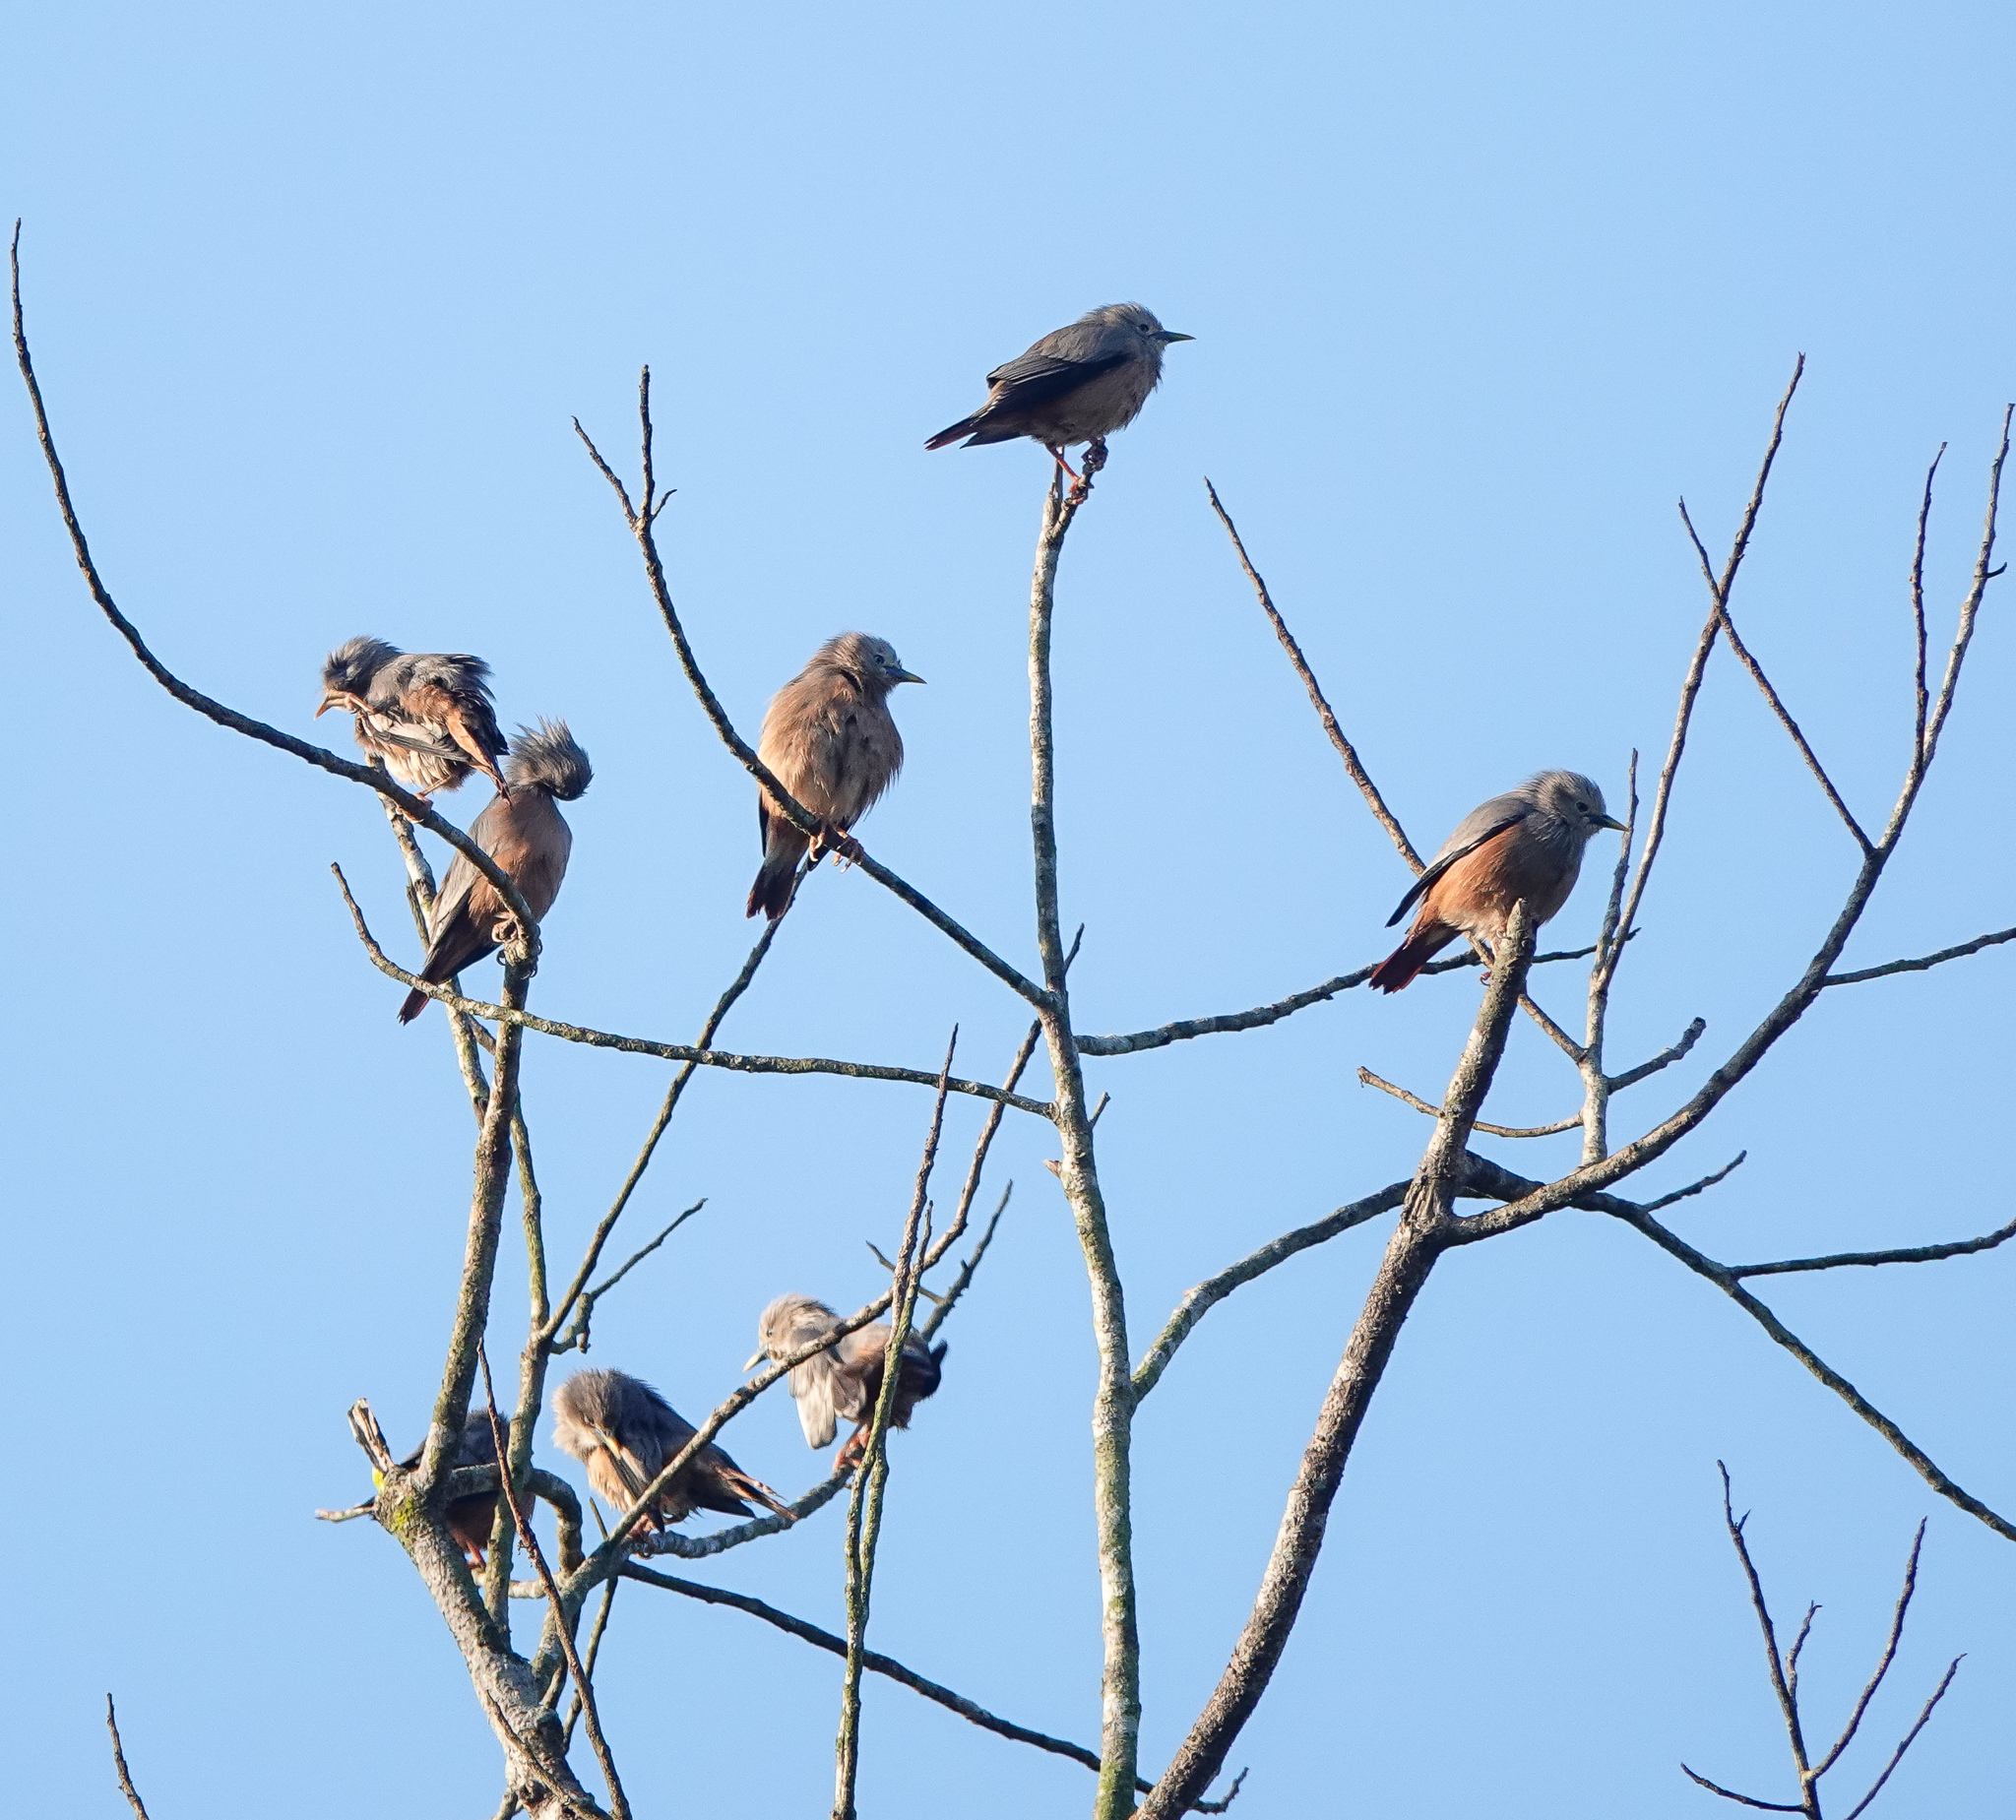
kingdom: Animalia
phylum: Chordata
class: Aves
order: Passeriformes
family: Sturnidae
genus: Sturnia
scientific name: Sturnia malabarica
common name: Chestnut-tailed starling
